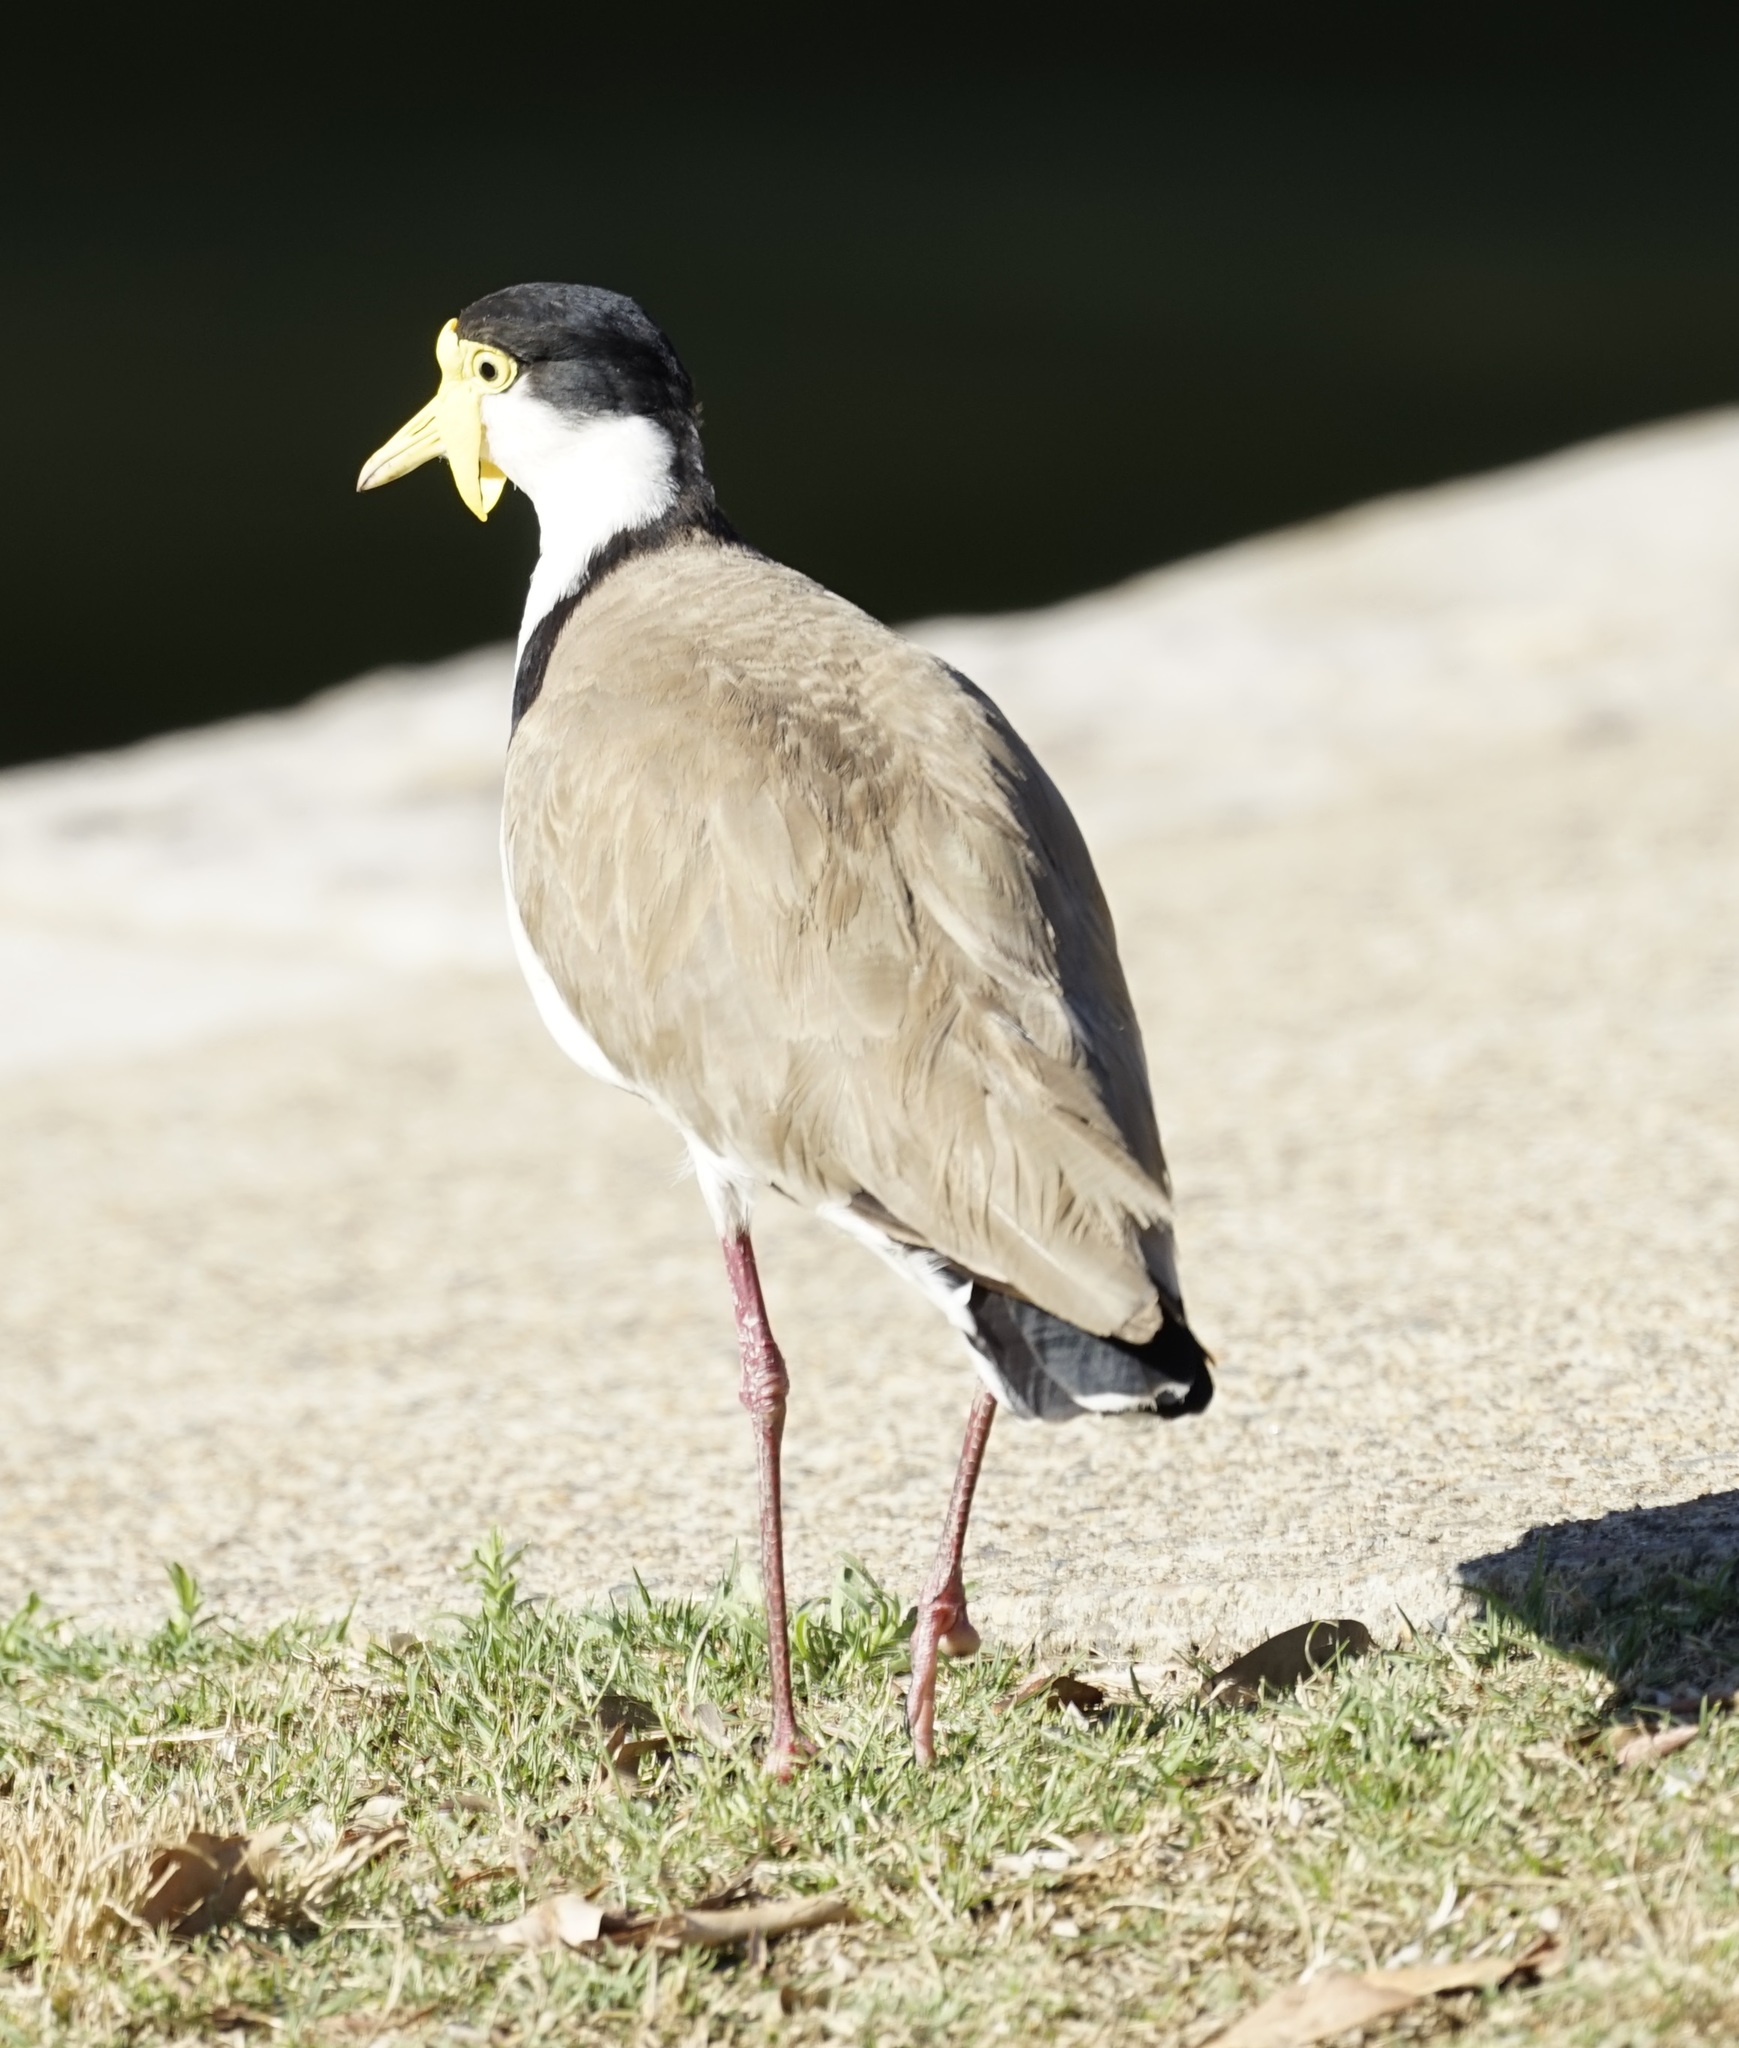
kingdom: Animalia
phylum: Chordata
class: Aves
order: Charadriiformes
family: Charadriidae
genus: Vanellus
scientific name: Vanellus miles
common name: Masked lapwing
